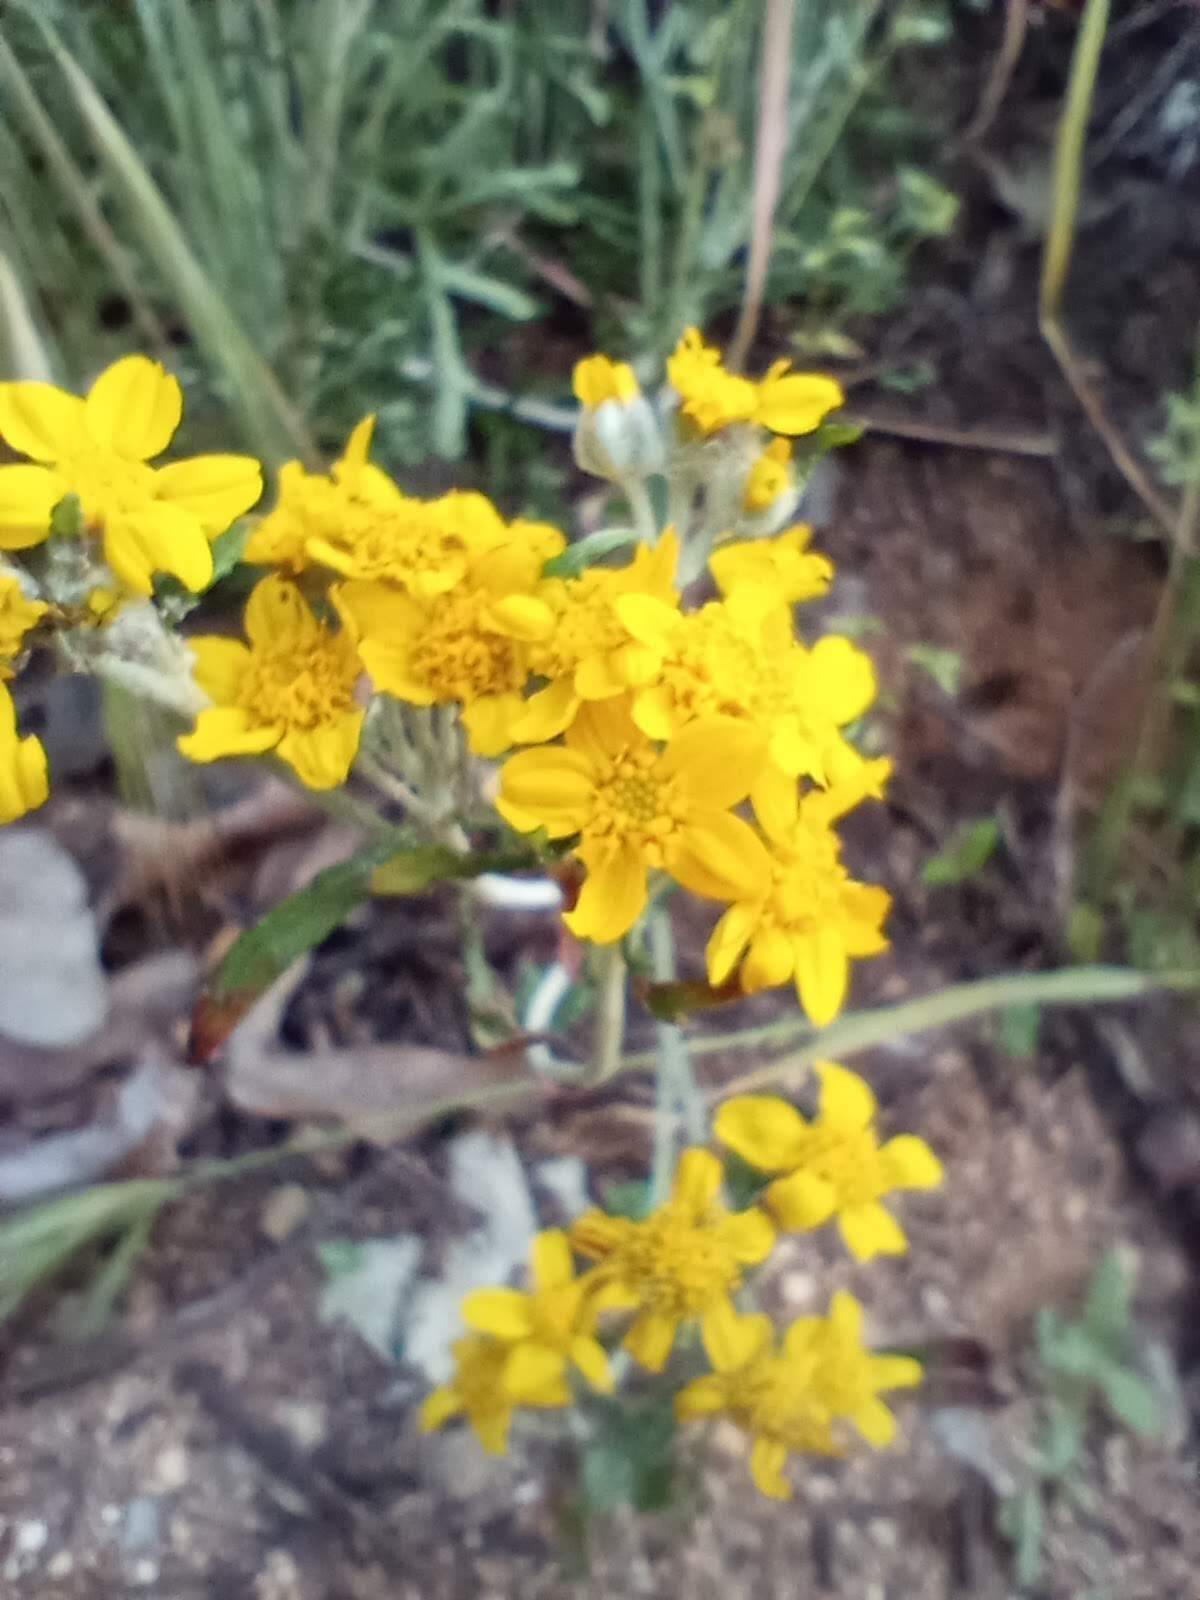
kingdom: Plantae
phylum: Tracheophyta
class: Magnoliopsida
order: Asterales
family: Asteraceae
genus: Eriophyllum
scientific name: Eriophyllum confertiflorum
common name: Golden-yarrow
